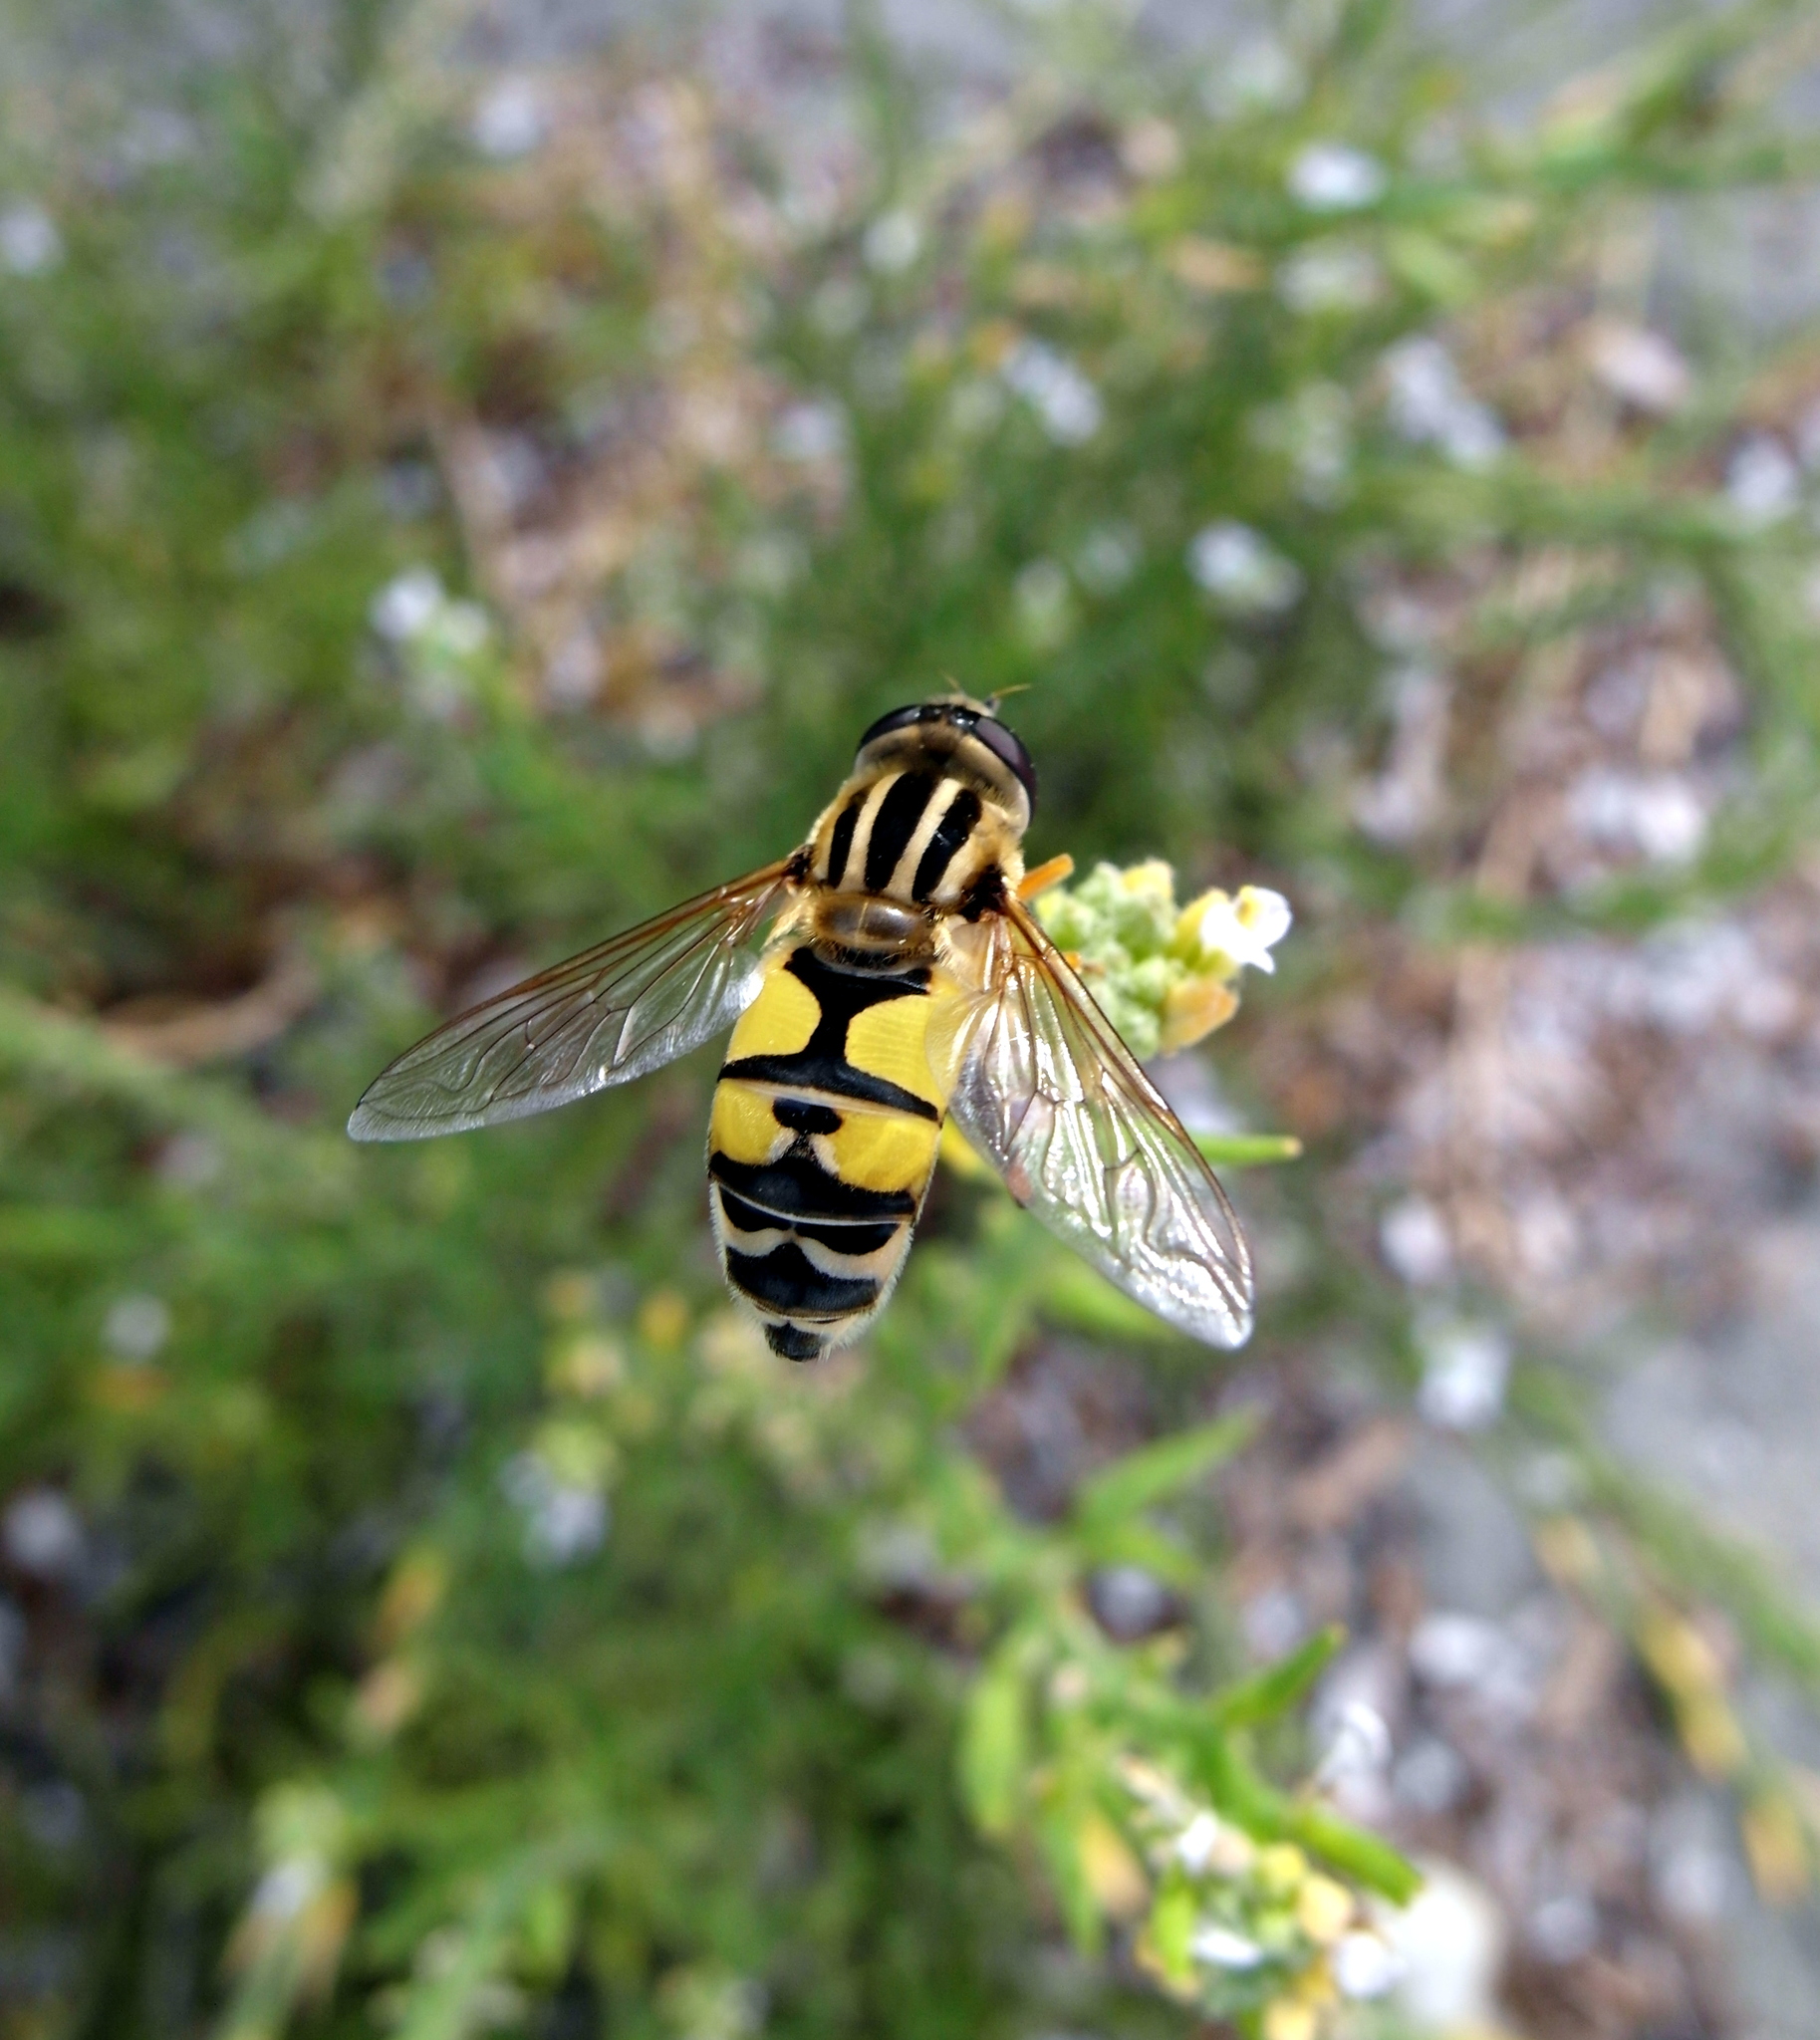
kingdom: Animalia
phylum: Arthropoda
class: Insecta
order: Diptera
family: Syrphidae
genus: Helophilus
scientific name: Helophilus trivittatus
